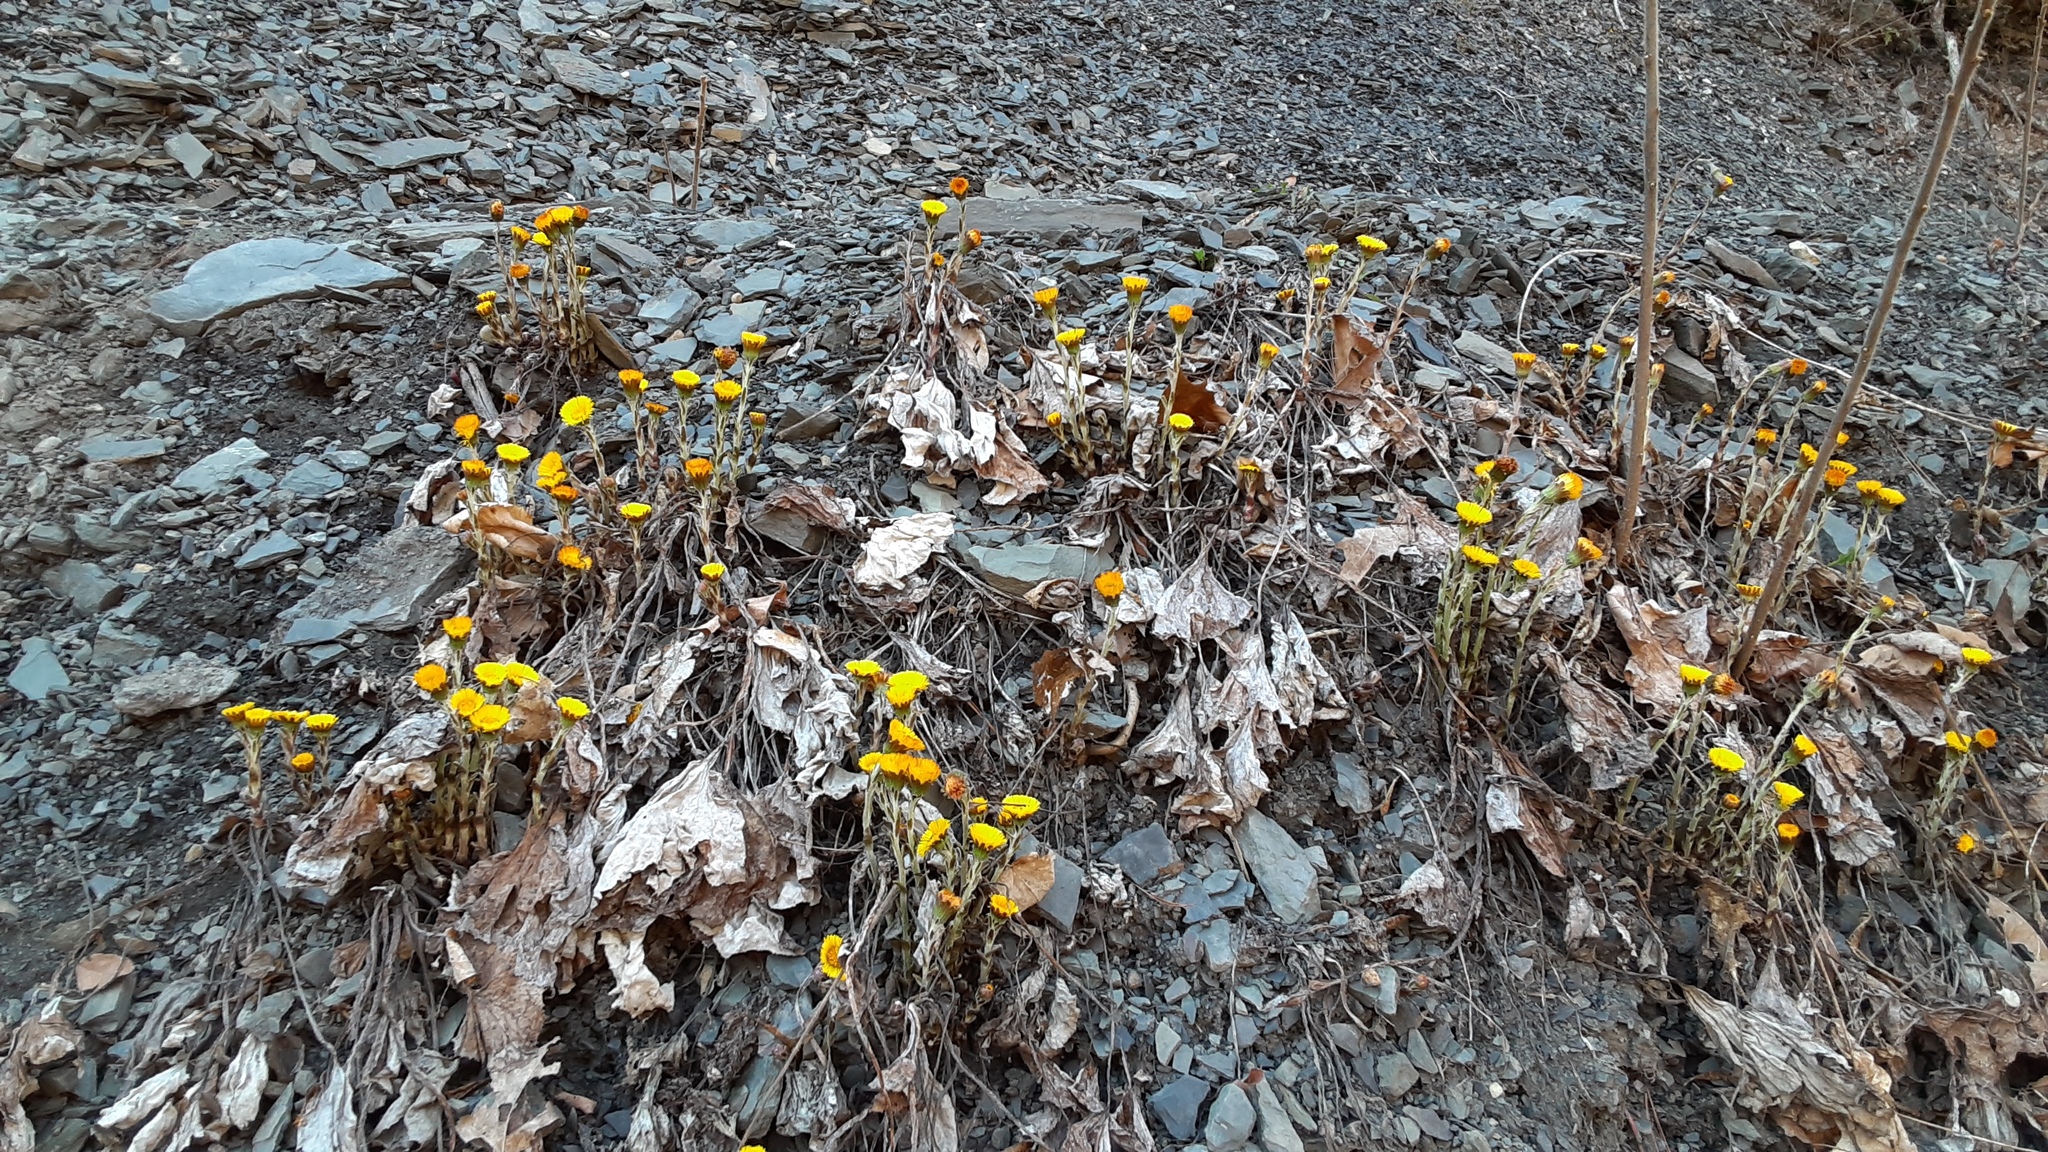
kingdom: Plantae
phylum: Tracheophyta
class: Magnoliopsida
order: Asterales
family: Asteraceae
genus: Tussilago
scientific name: Tussilago farfara
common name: Coltsfoot
